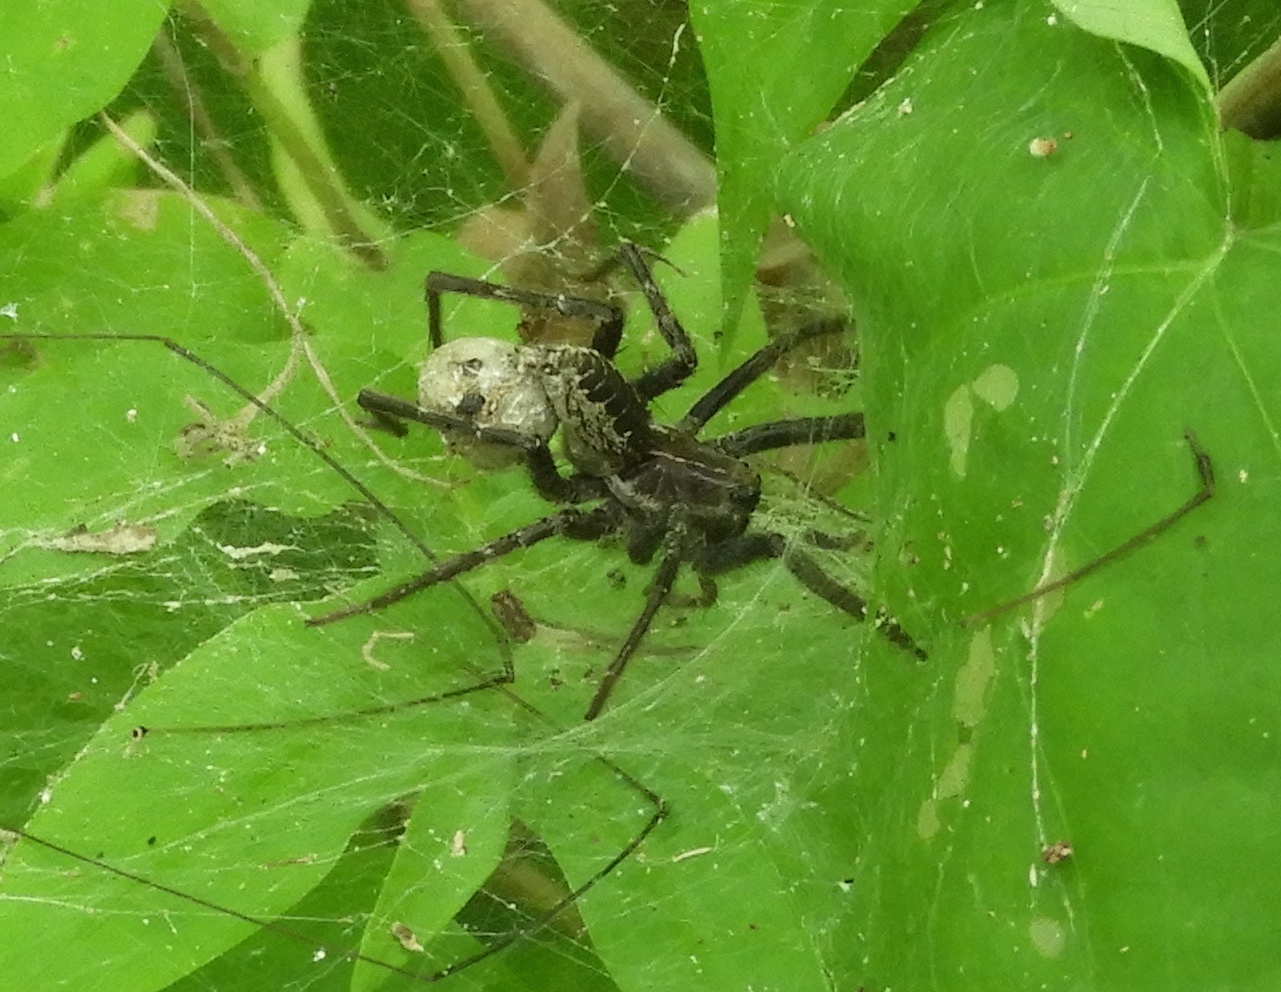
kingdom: Animalia
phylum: Arthropoda
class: Arachnida
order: Araneae
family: Lycosidae
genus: Sosippus
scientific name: Sosippus
